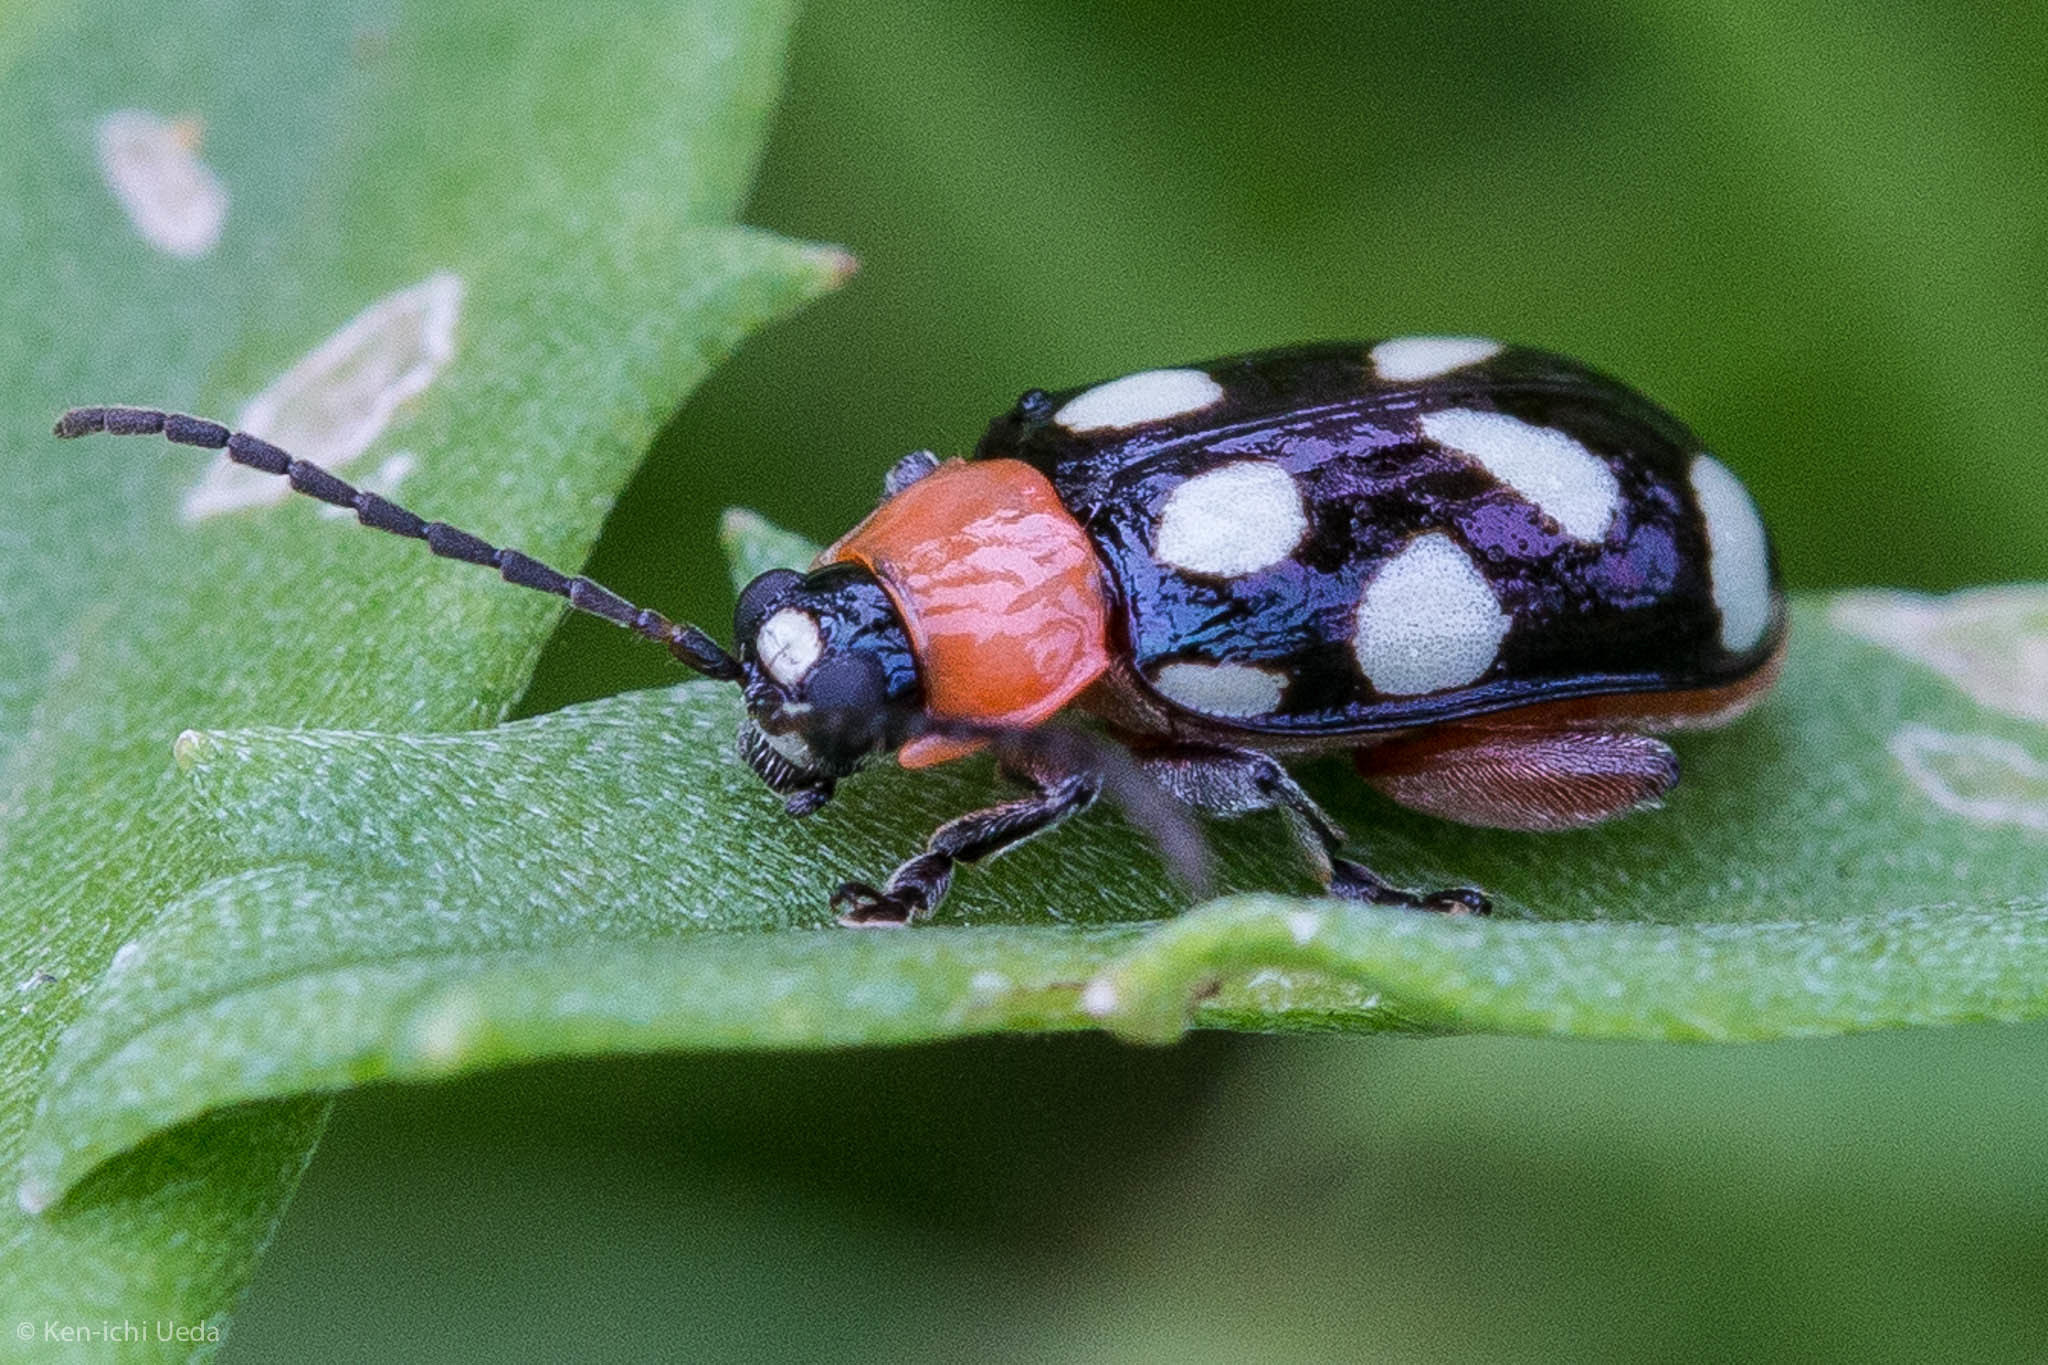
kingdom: Animalia
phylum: Arthropoda
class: Insecta
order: Coleoptera
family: Chrysomelidae
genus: Omophoita
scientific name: Omophoita cyanipennis
